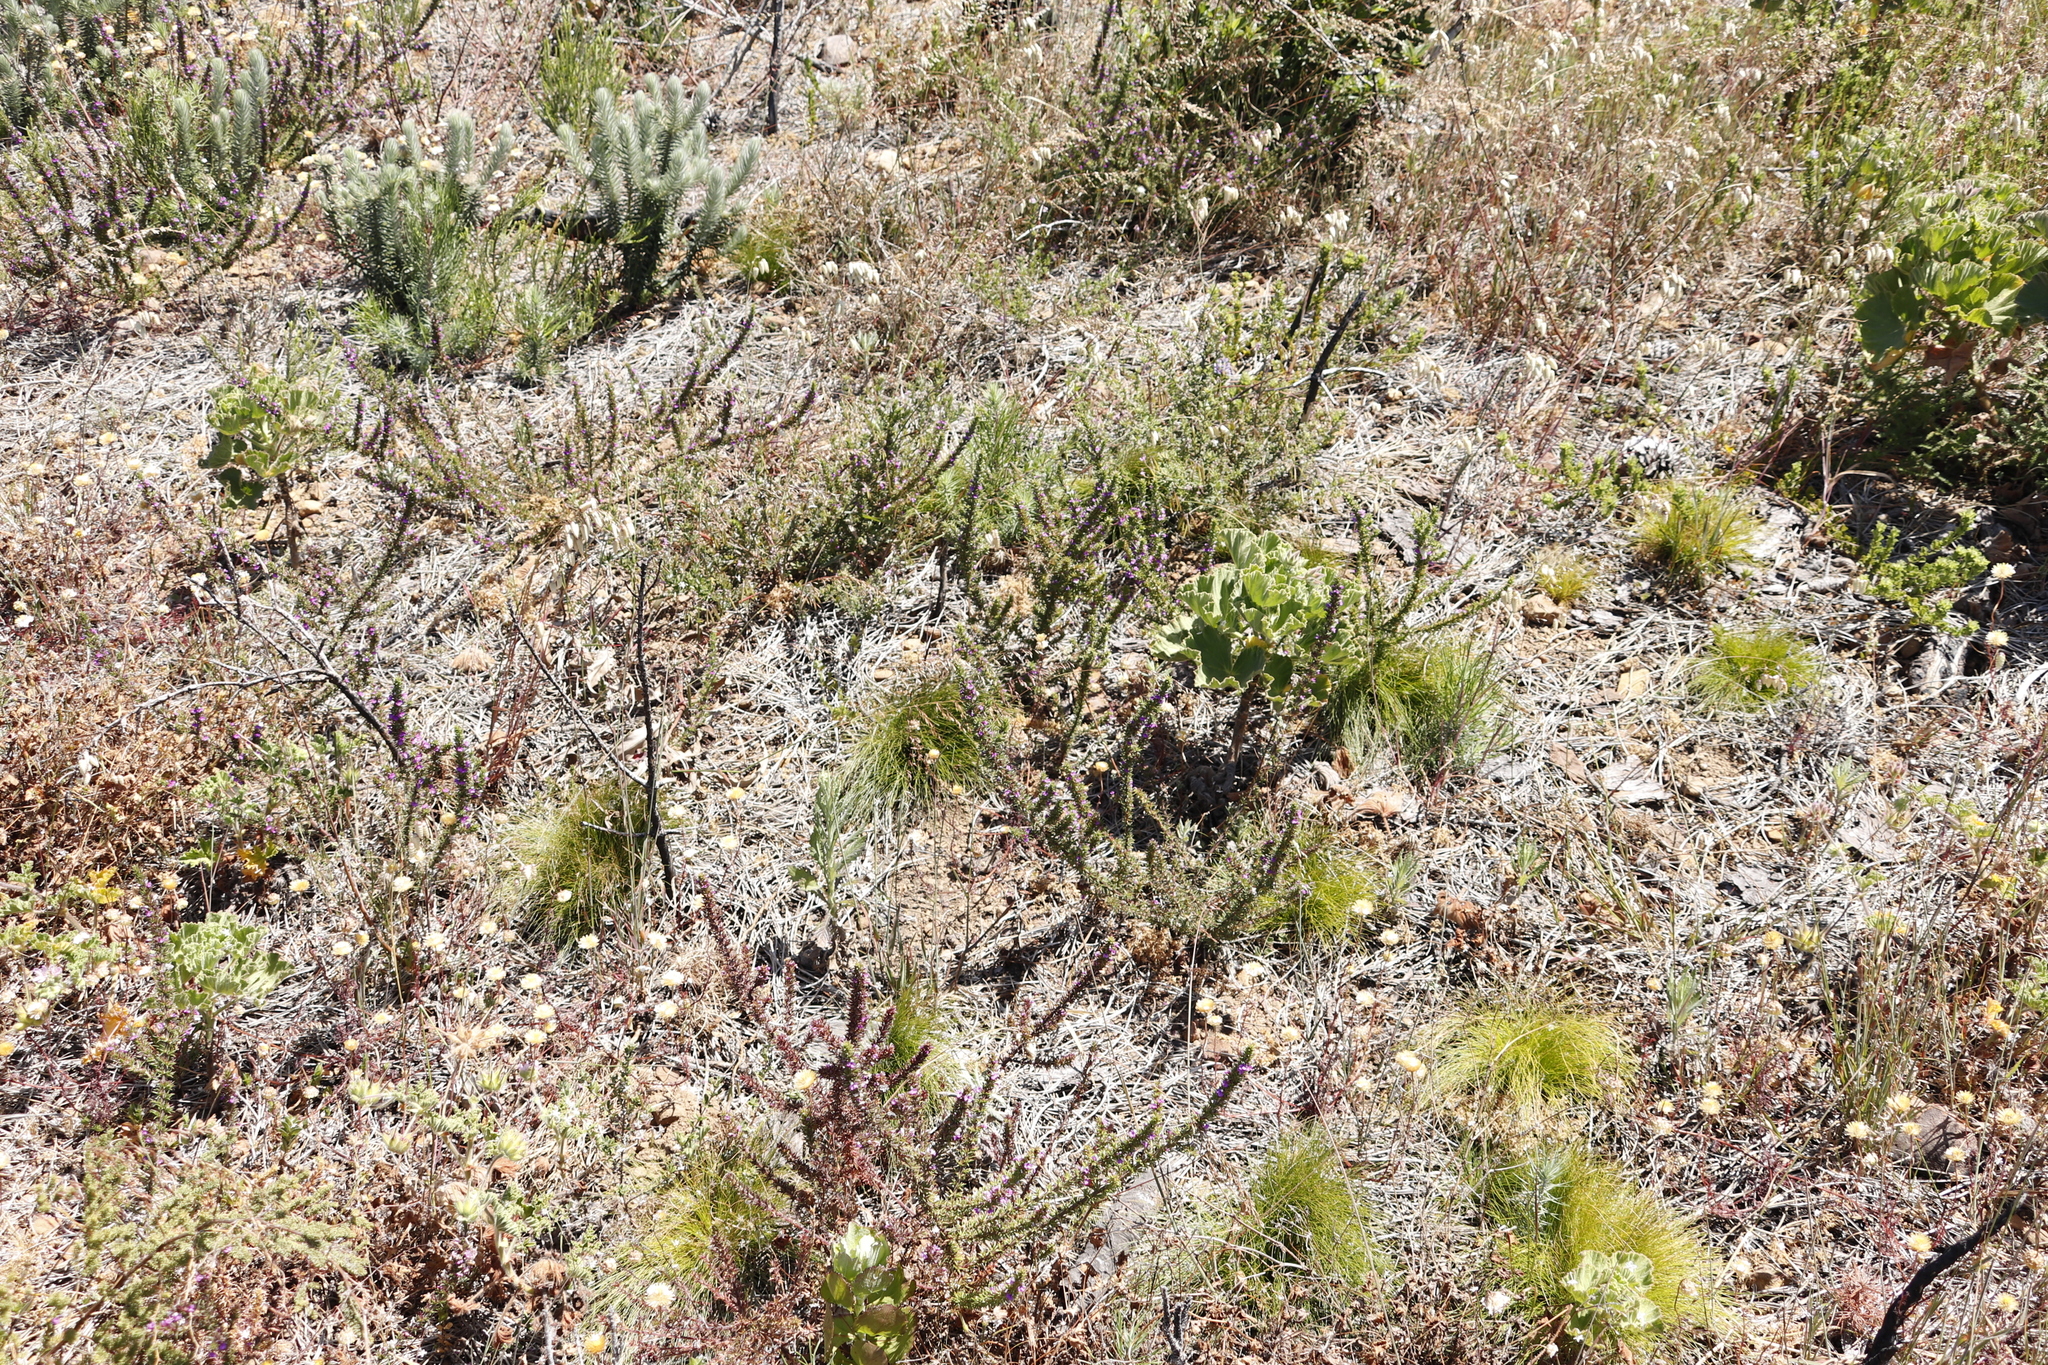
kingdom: Plantae
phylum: Tracheophyta
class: Magnoliopsida
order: Fabales
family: Polygalaceae
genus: Muraltia
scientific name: Muraltia heisteria
